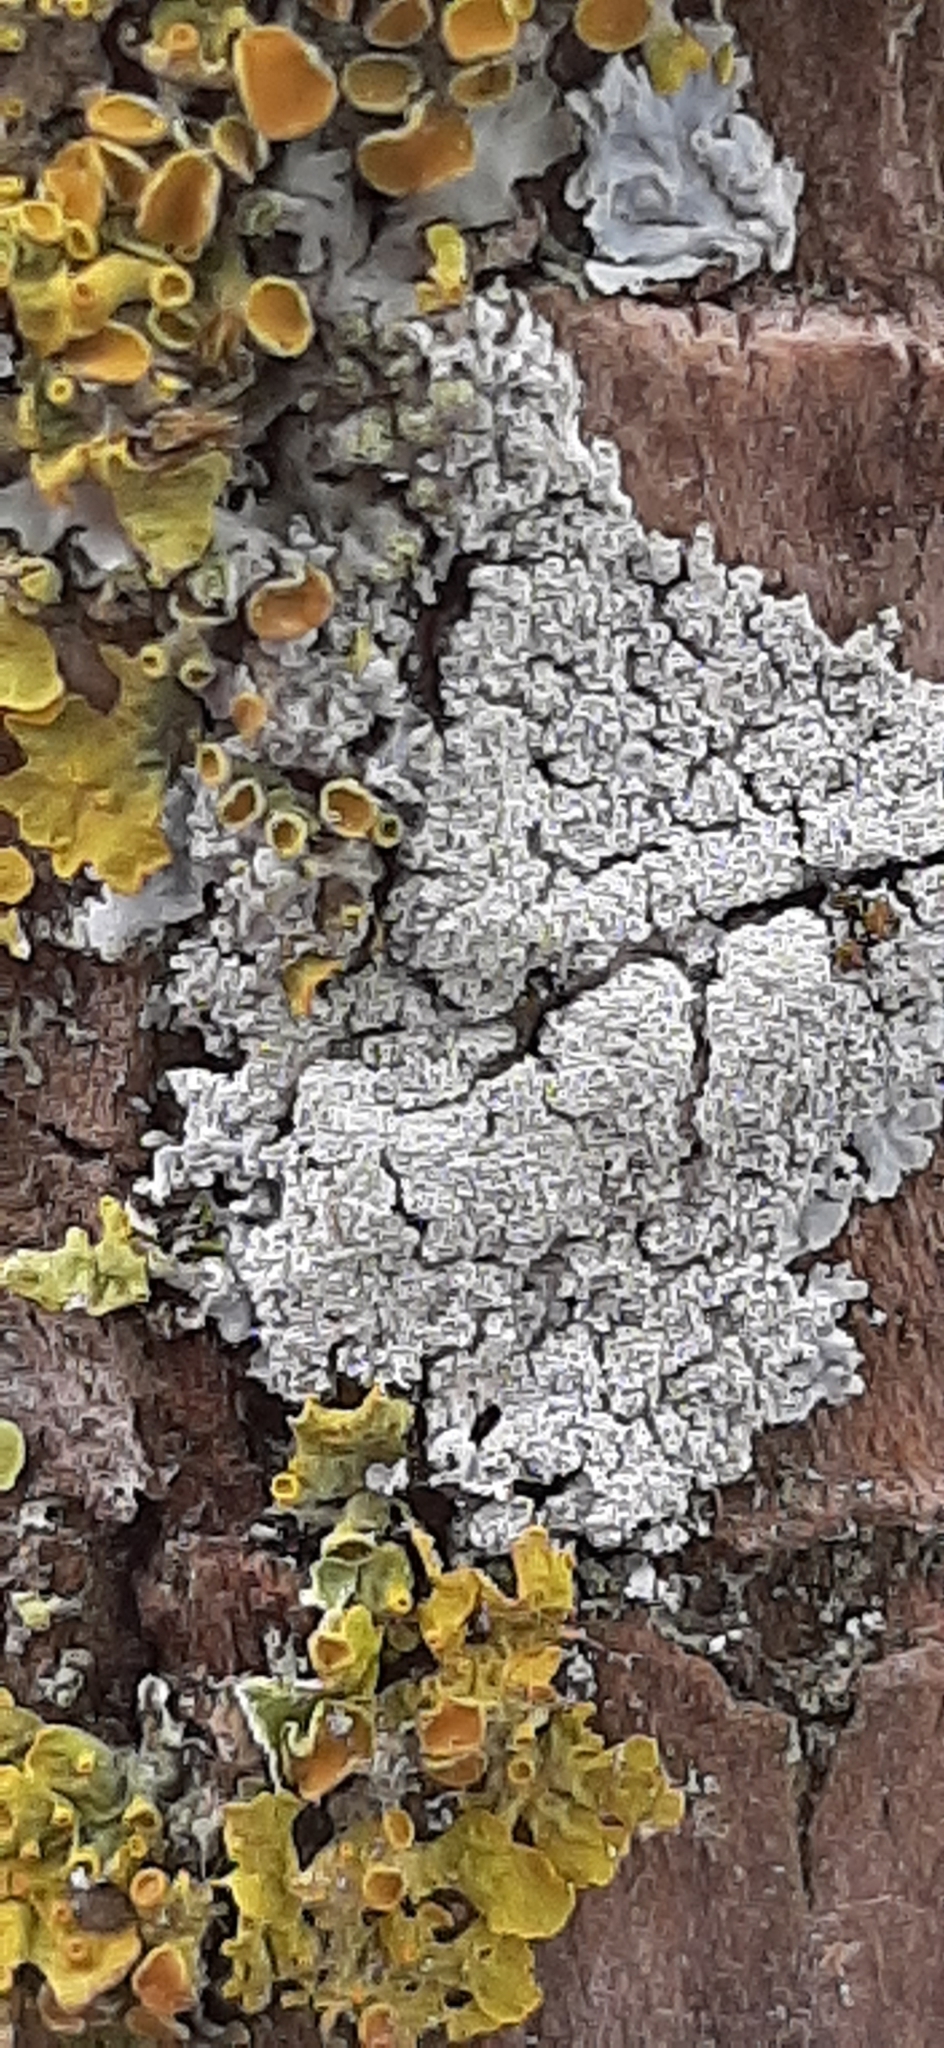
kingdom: Fungi
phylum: Ascomycota
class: Lecanoromycetes
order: Teloschistales
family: Teloschistaceae
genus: Xanthoria
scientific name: Xanthoria parietina
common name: Common orange lichen
